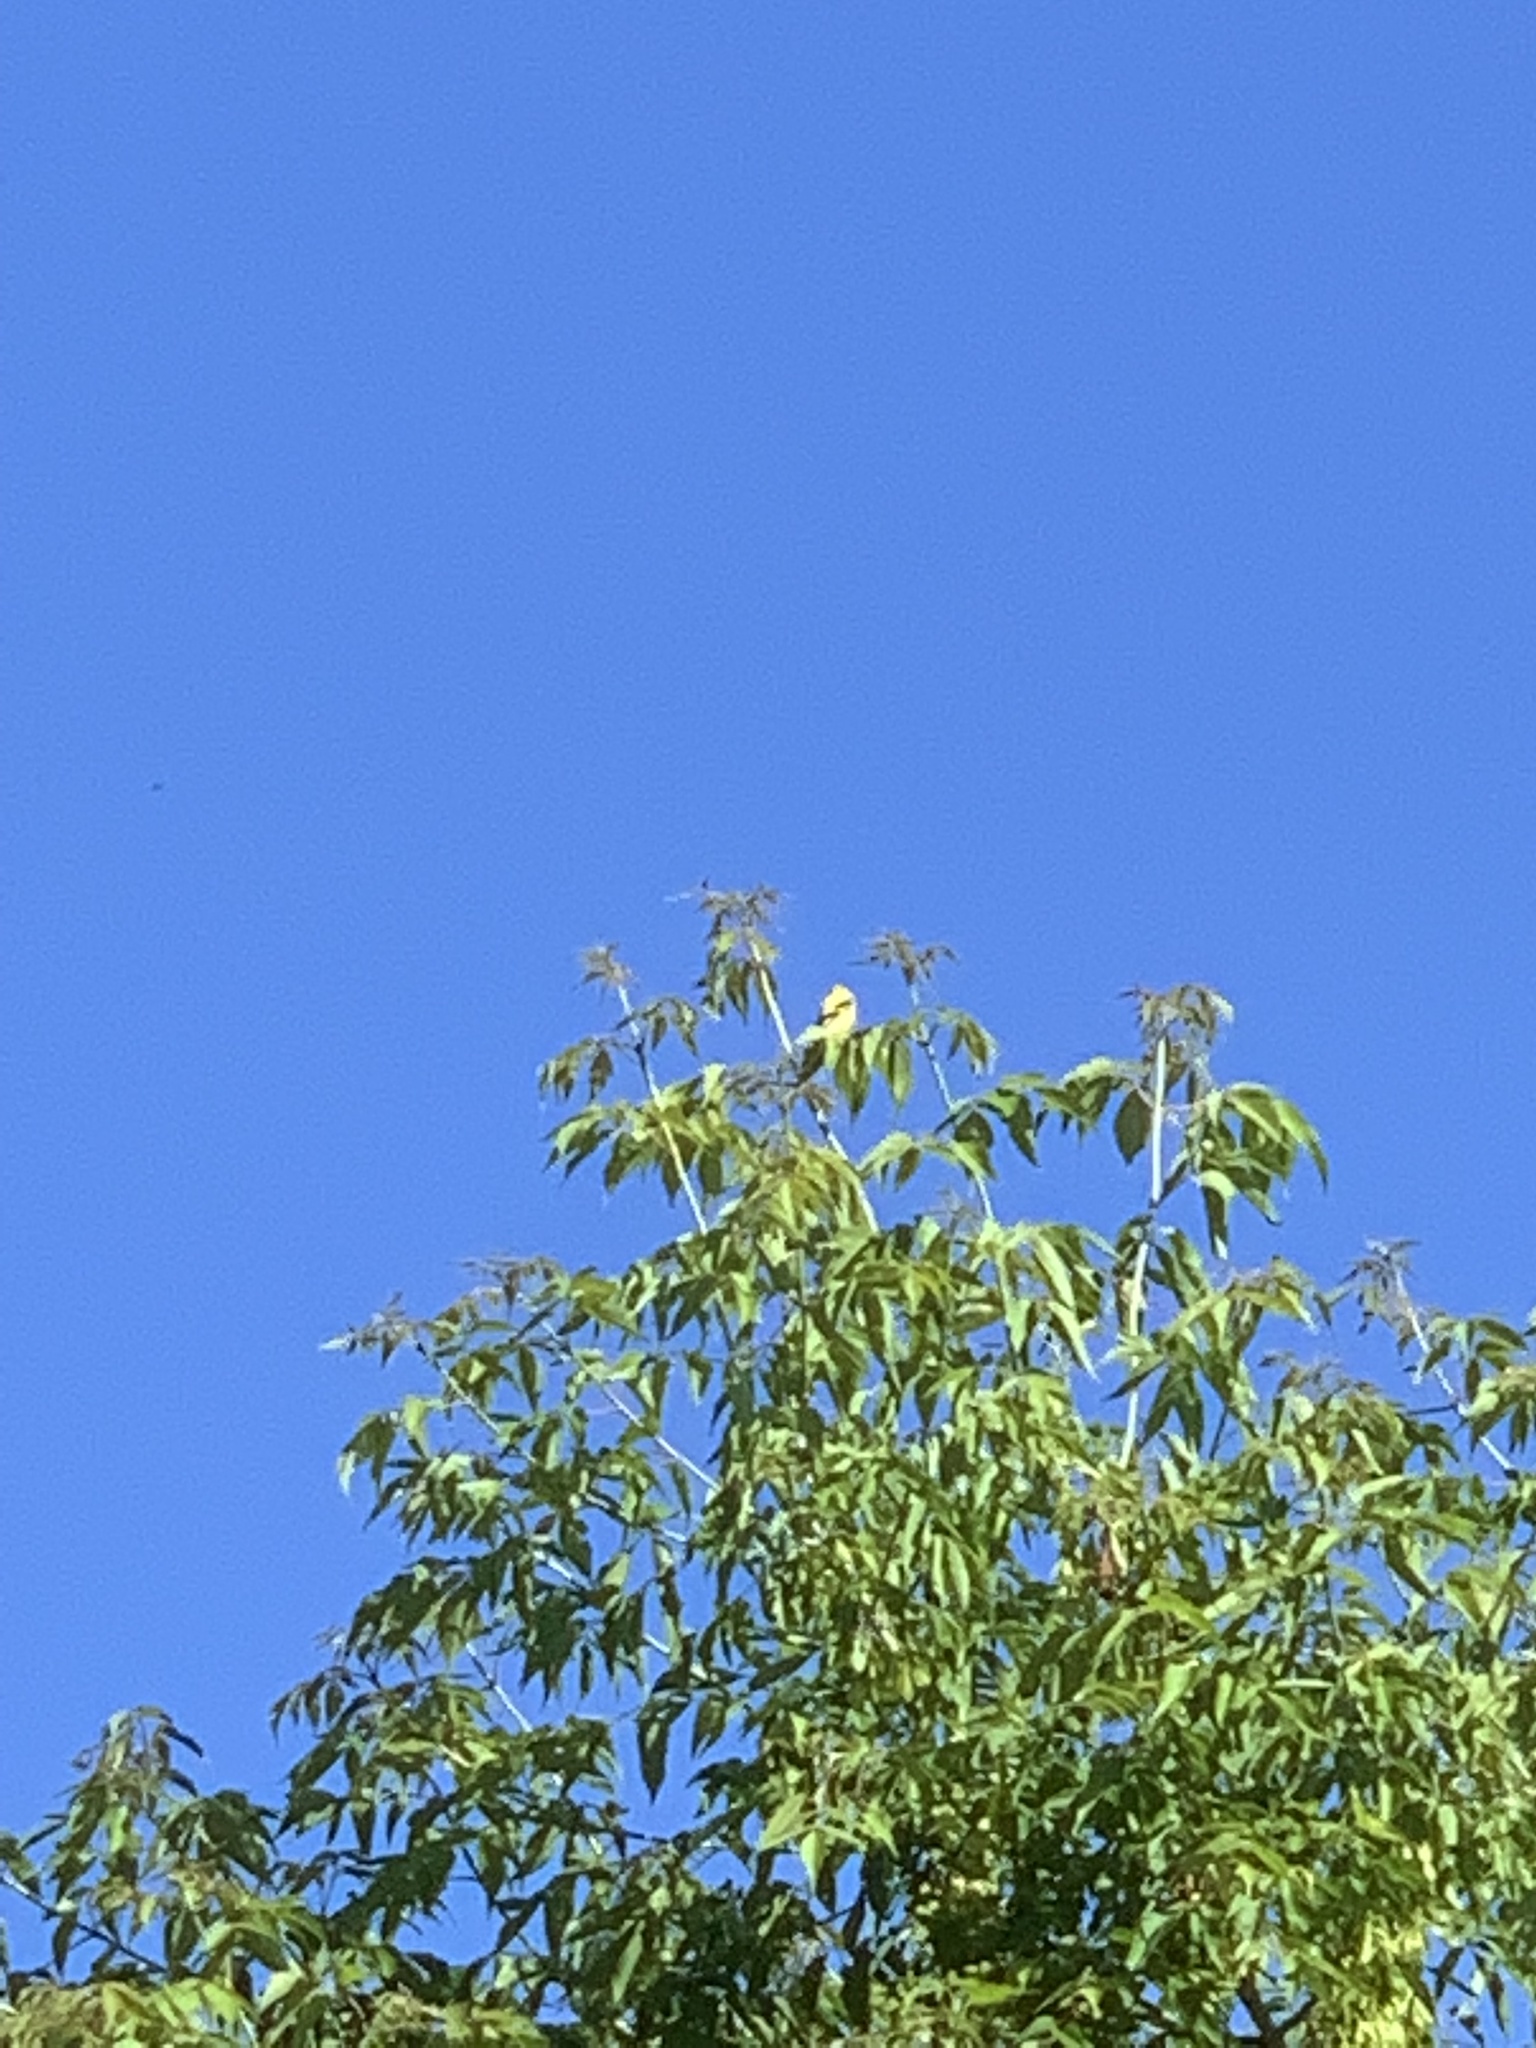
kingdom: Animalia
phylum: Chordata
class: Aves
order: Passeriformes
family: Fringillidae
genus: Spinus
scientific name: Spinus tristis
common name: American goldfinch
